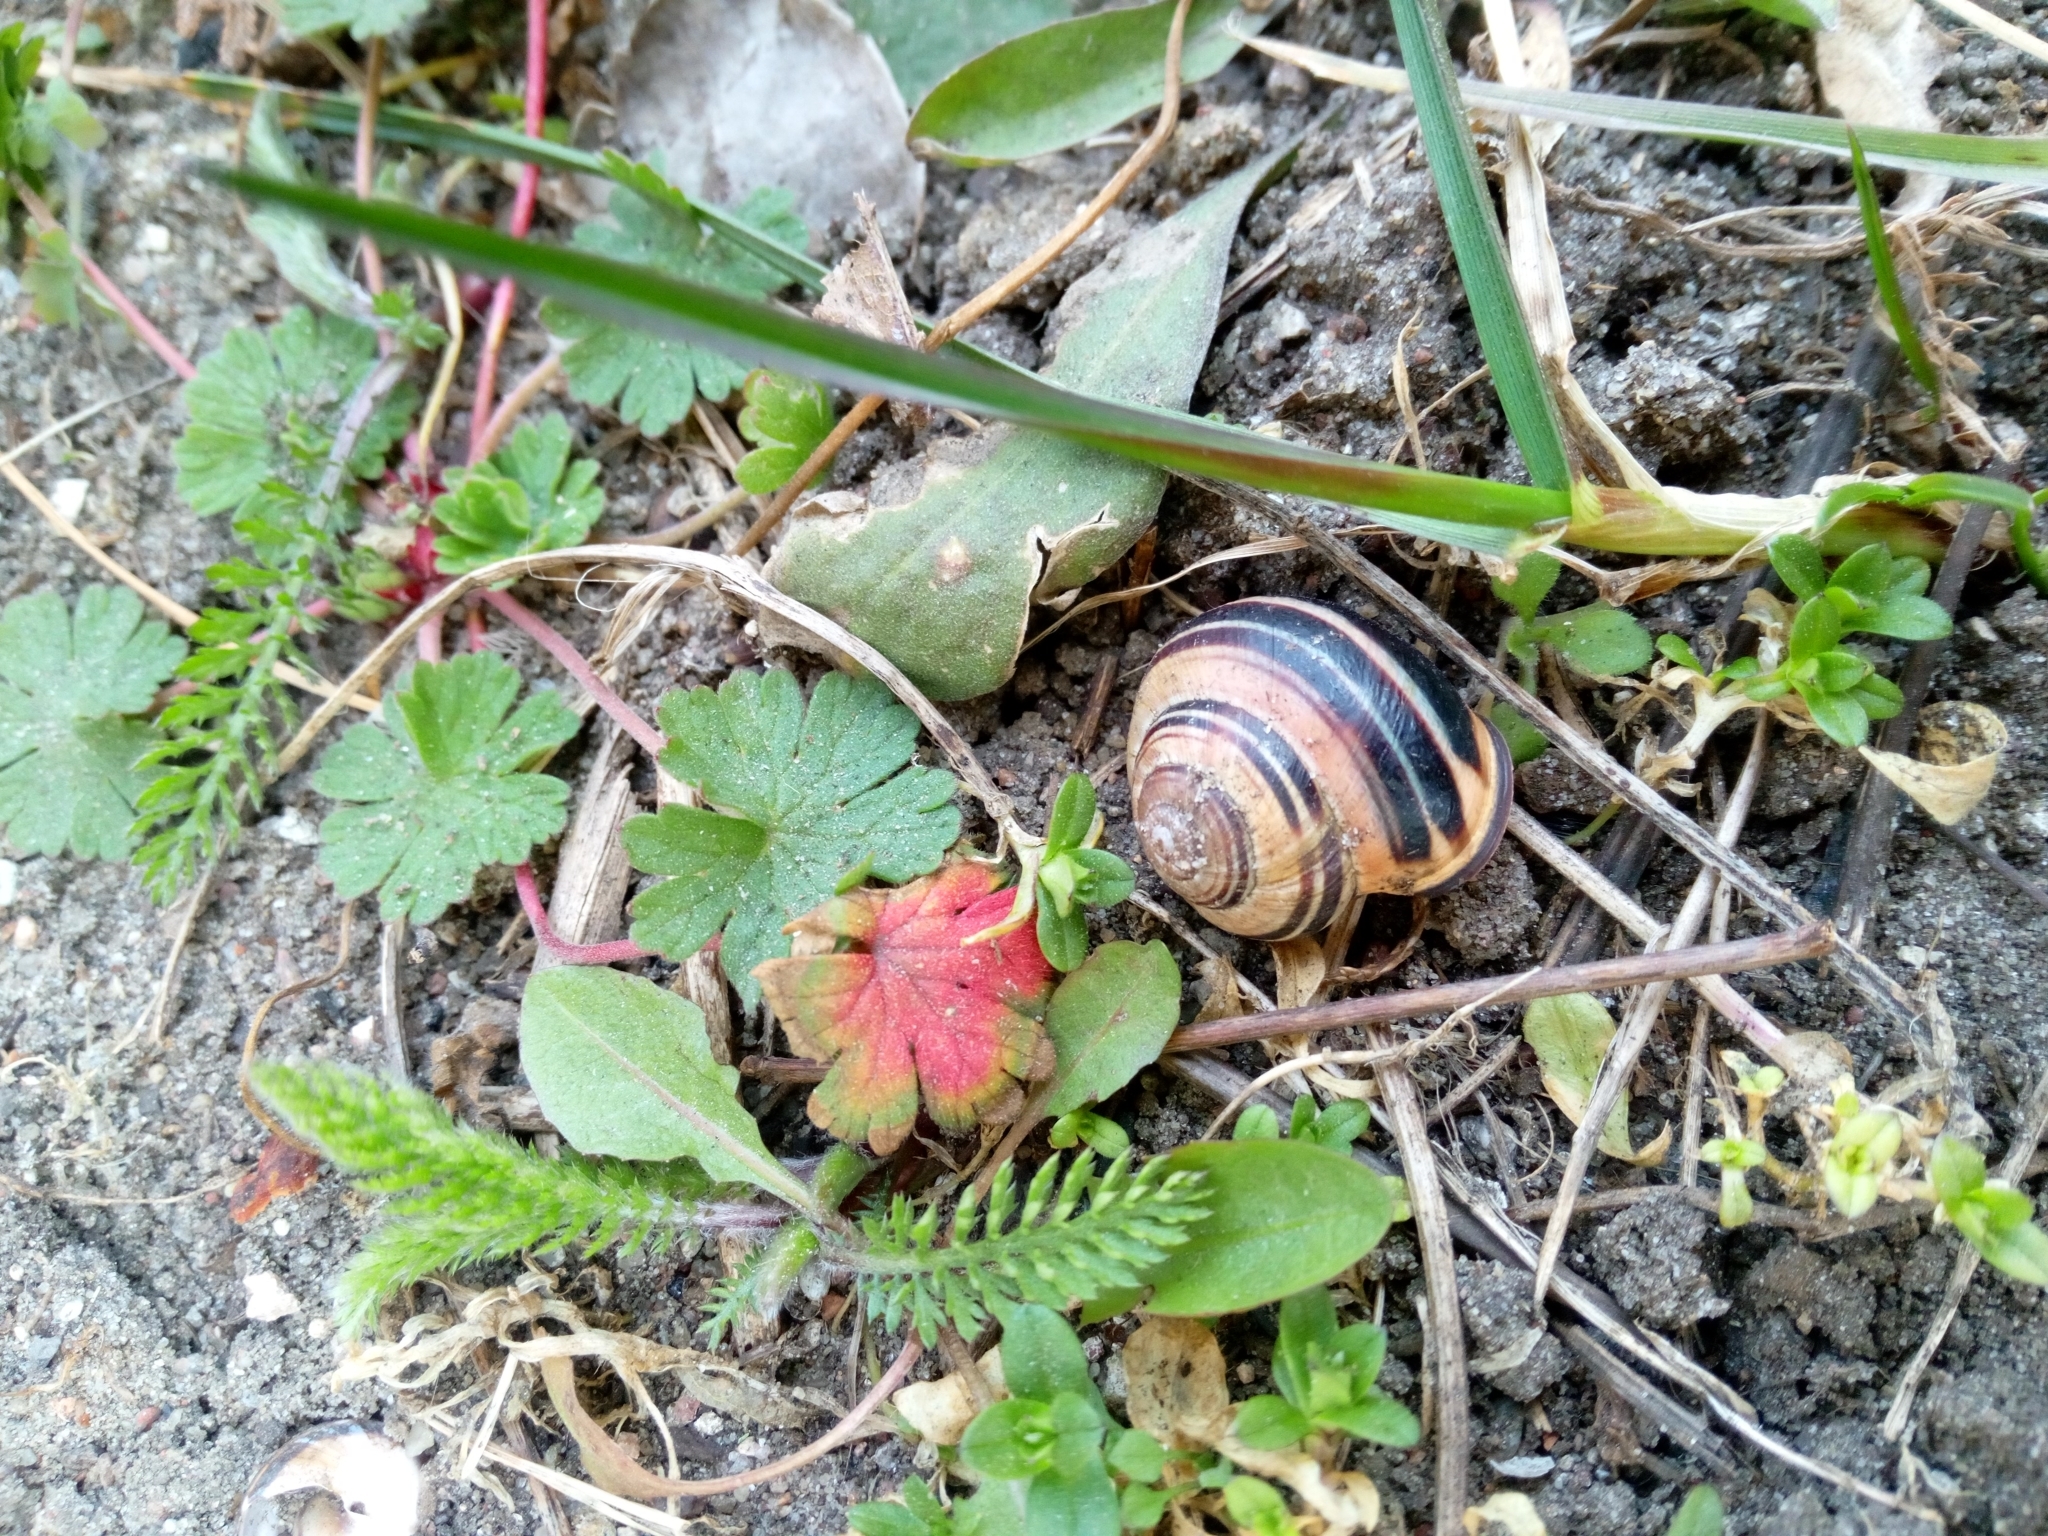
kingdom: Animalia
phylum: Mollusca
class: Gastropoda
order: Stylommatophora
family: Helicidae
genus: Cepaea
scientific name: Cepaea nemoralis
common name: Grovesnail
